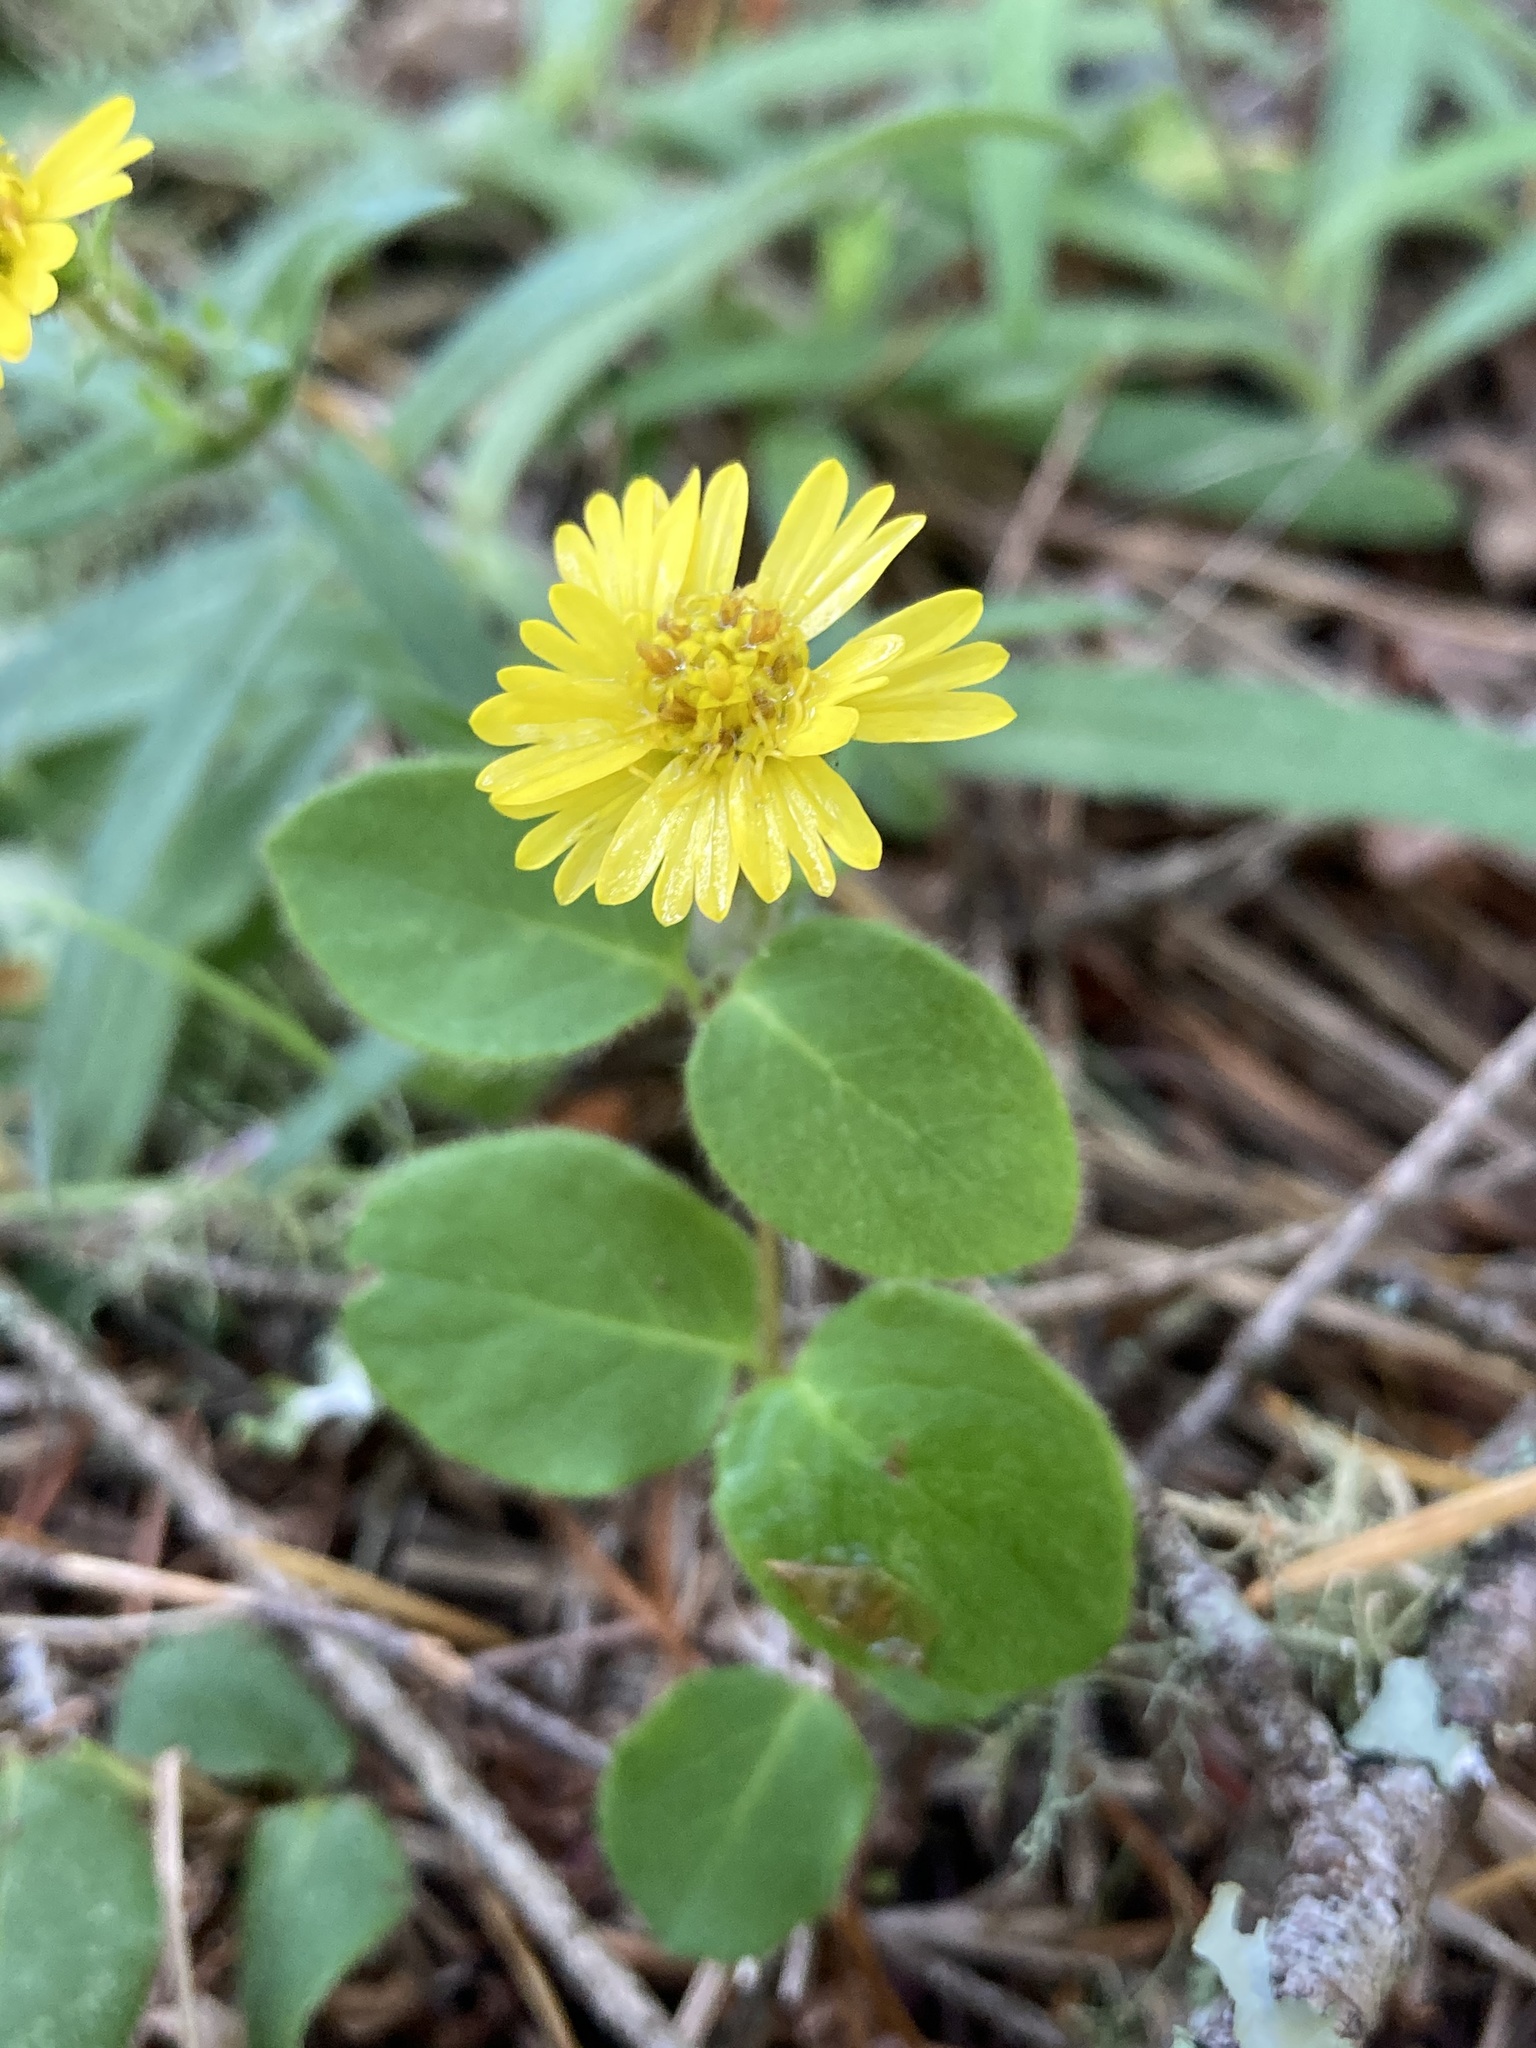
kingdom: Plantae
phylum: Tracheophyta
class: Magnoliopsida
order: Asterales
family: Asteraceae
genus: Anisocarpus
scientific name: Anisocarpus madioides
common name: Woodland madia
